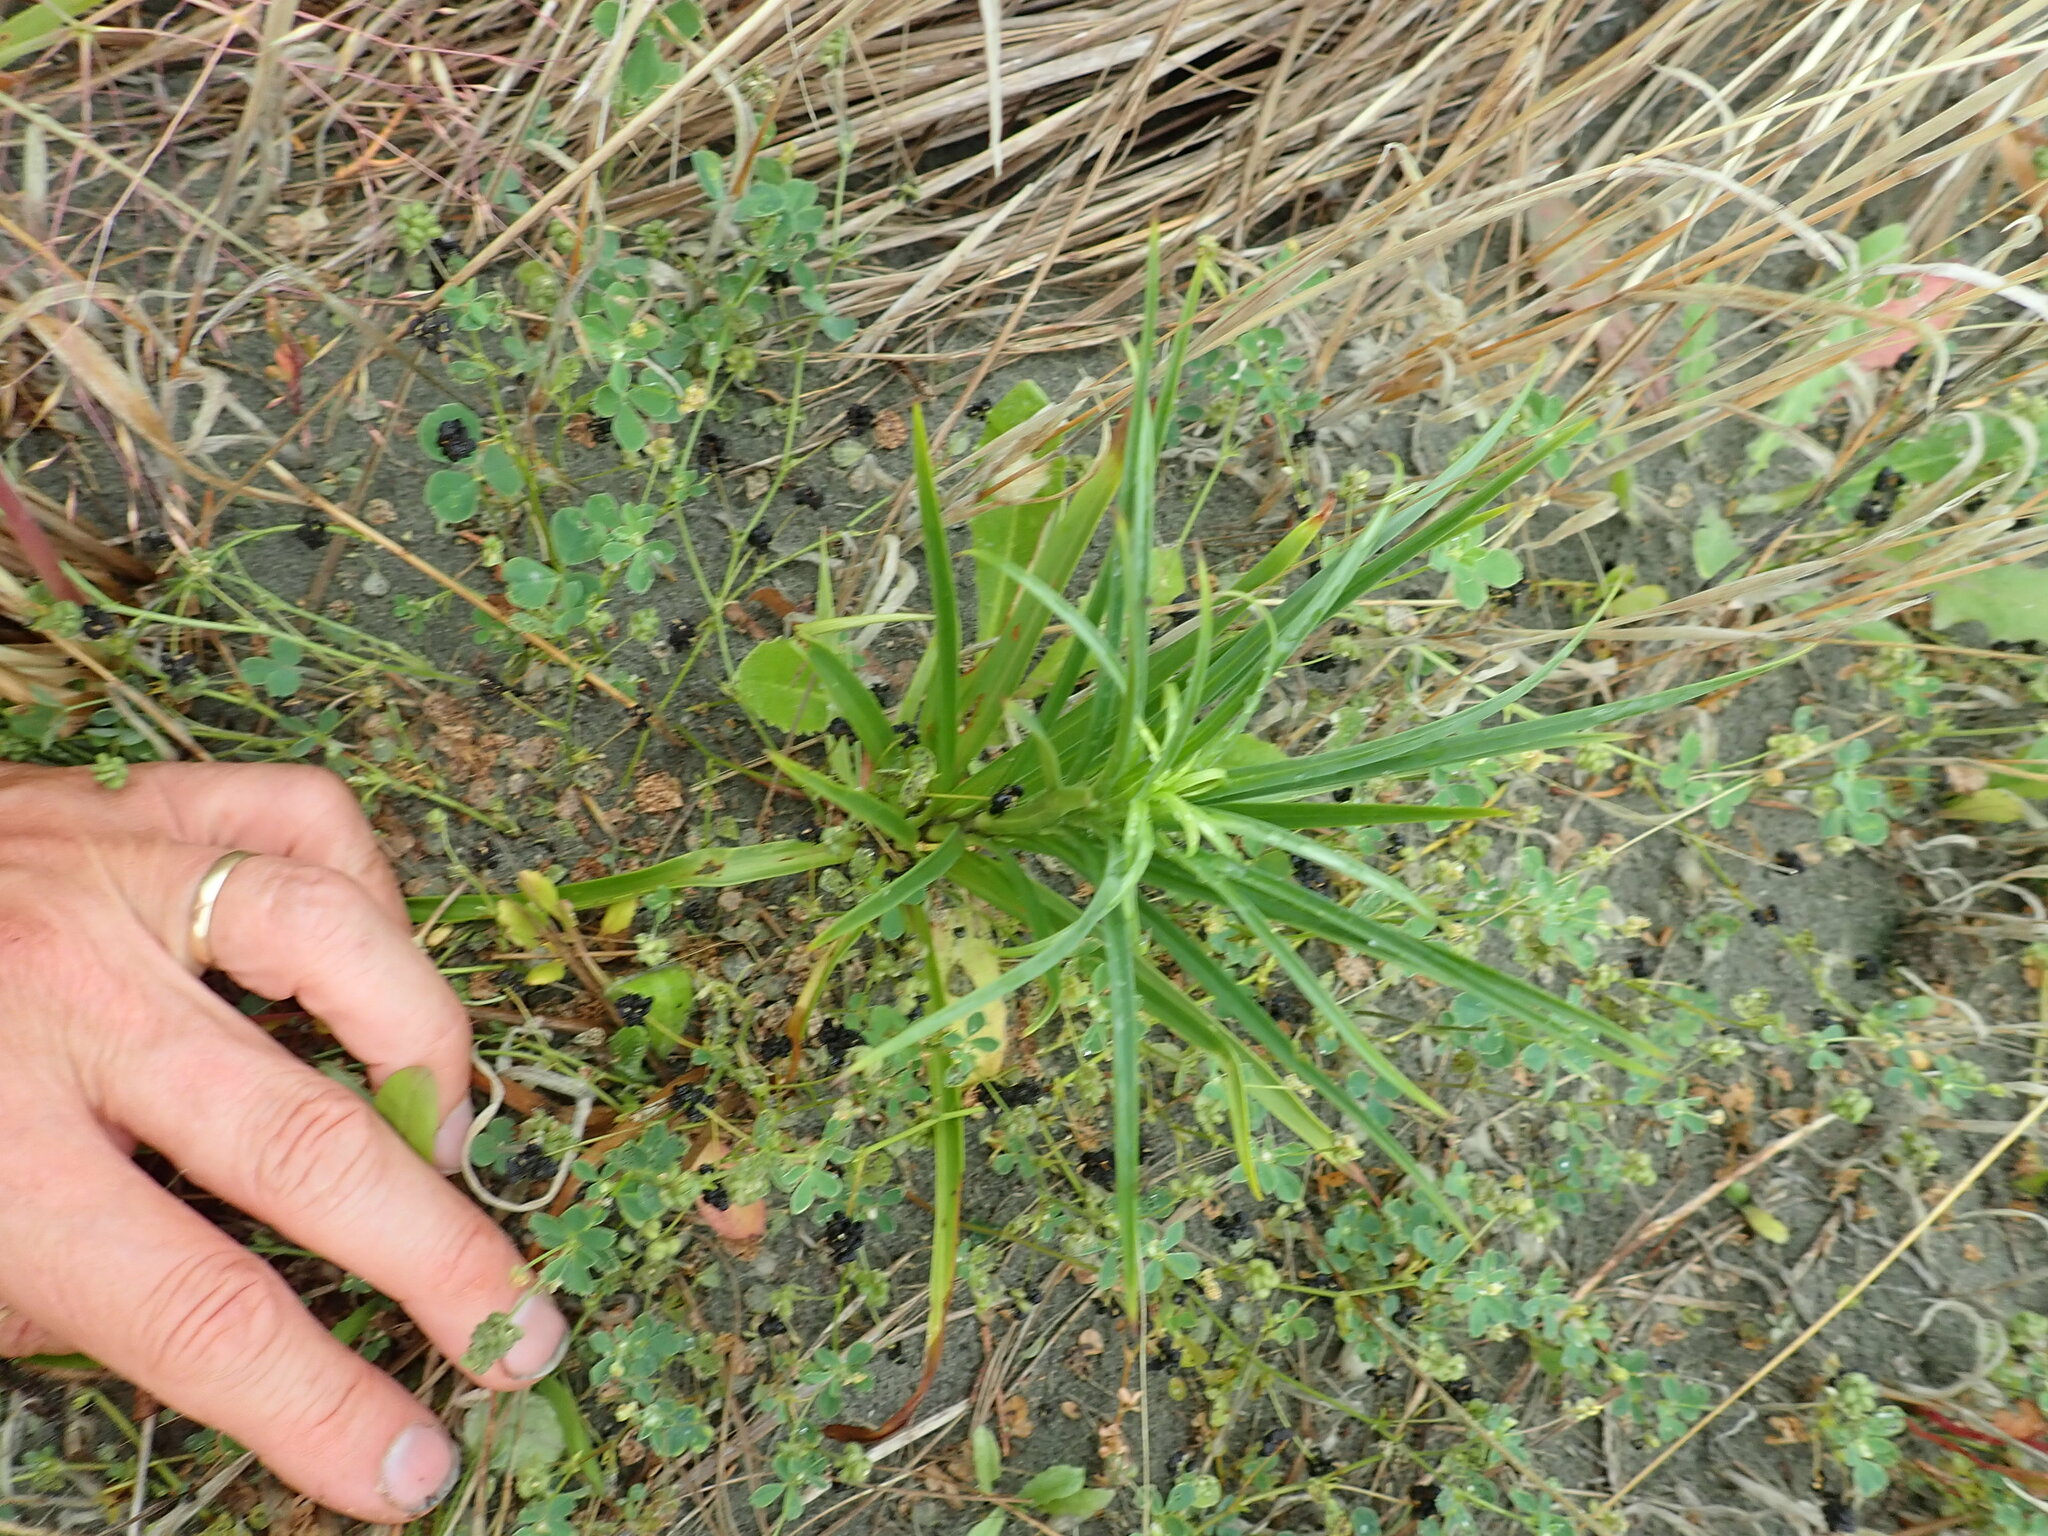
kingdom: Plantae
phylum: Tracheophyta
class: Liliopsida
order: Liliales
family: Liliaceae
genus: Lilium
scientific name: Lilium formosanum
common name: Formosa lily
